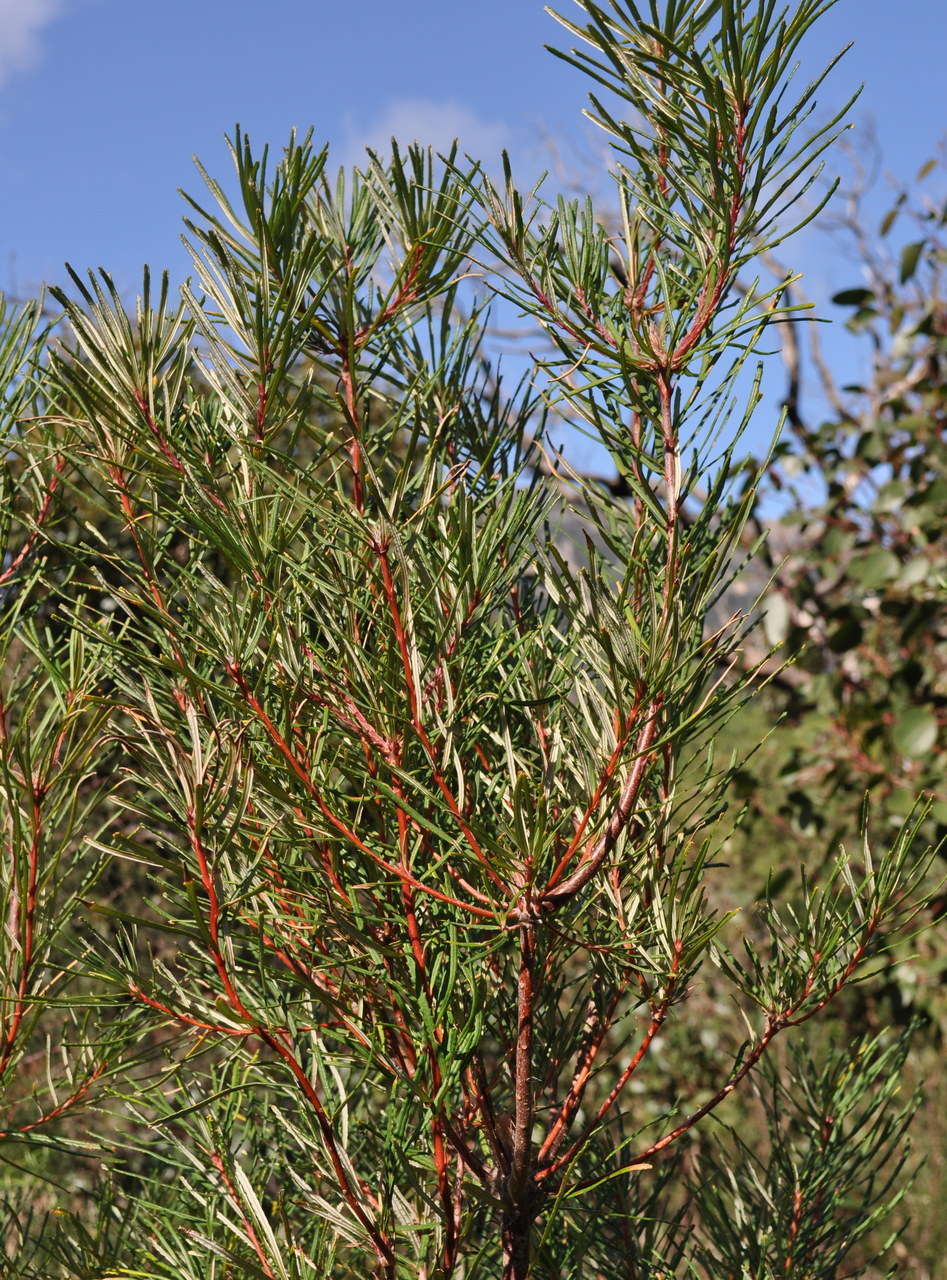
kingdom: Plantae
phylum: Tracheophyta
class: Magnoliopsida
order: Proteales
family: Proteaceae
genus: Banksia
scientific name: Banksia spinulosa
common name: Hairpin banksia
